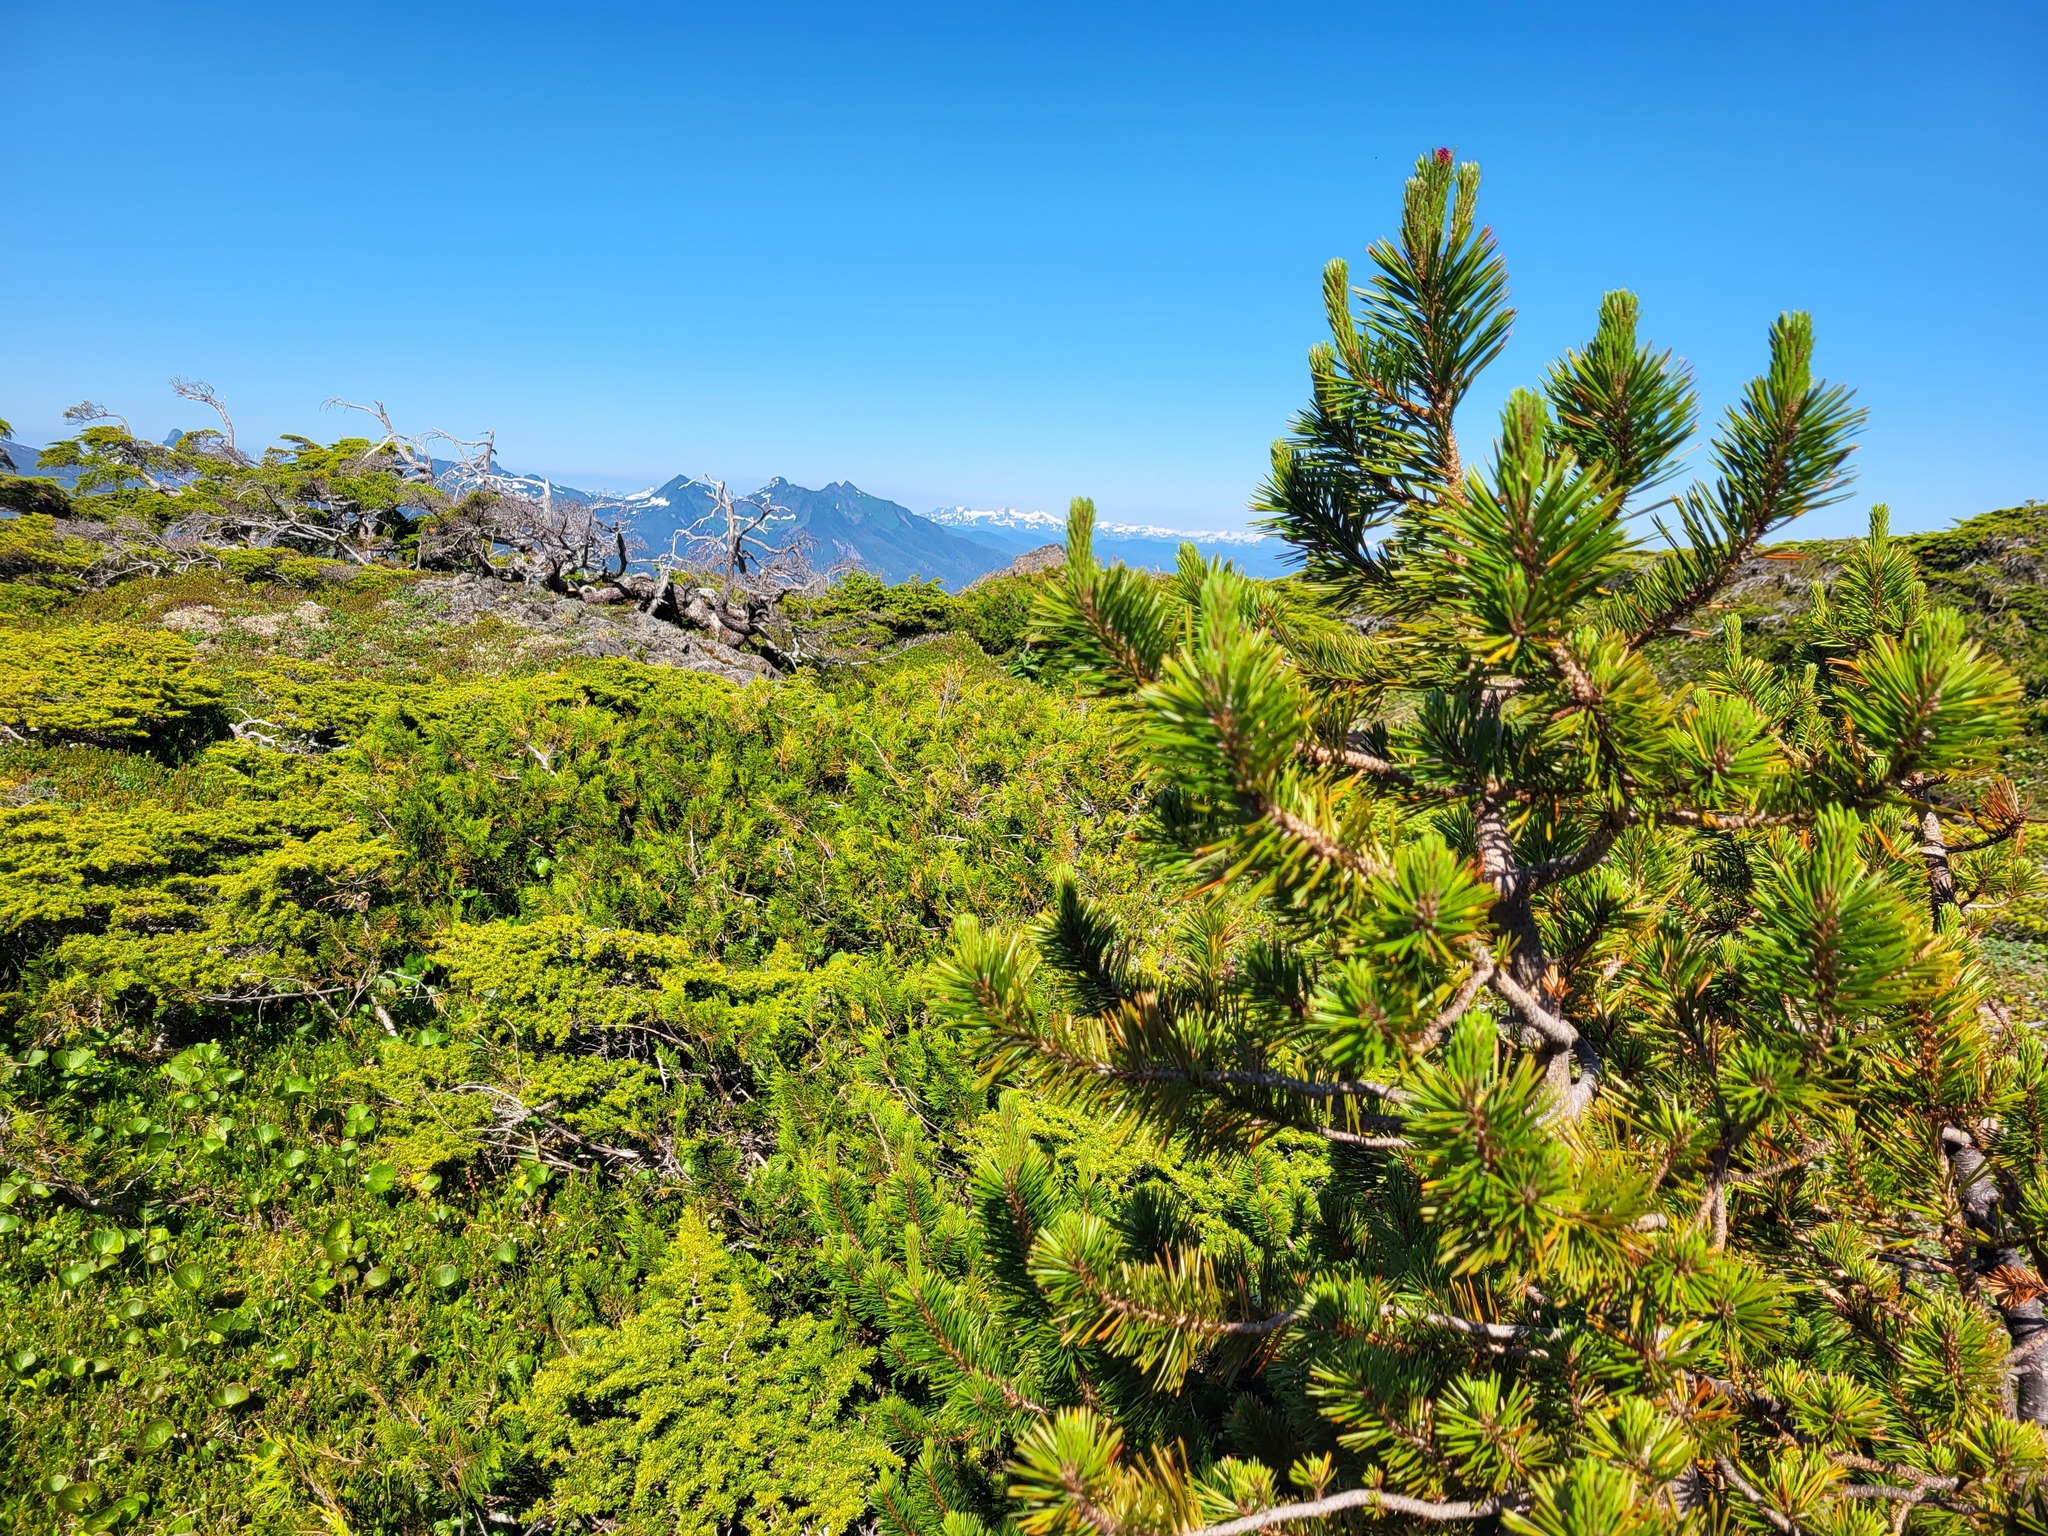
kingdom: Plantae
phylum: Tracheophyta
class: Pinopsida
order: Pinales
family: Pinaceae
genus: Pinus
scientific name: Pinus contorta
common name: Lodgepole pine
